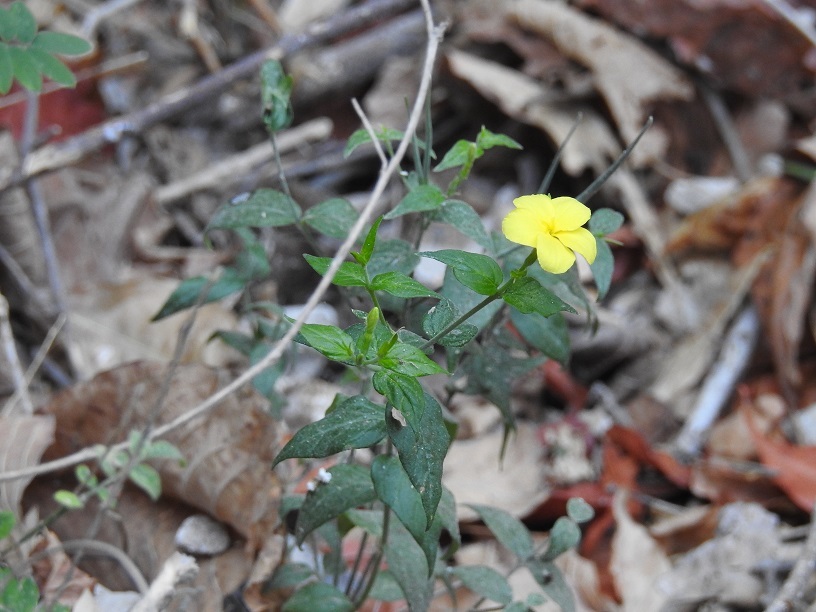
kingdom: Plantae
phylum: Tracheophyta
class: Magnoliopsida
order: Gentianales
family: Apocynaceae
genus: Haplophyton
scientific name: Haplophyton cimicidum
